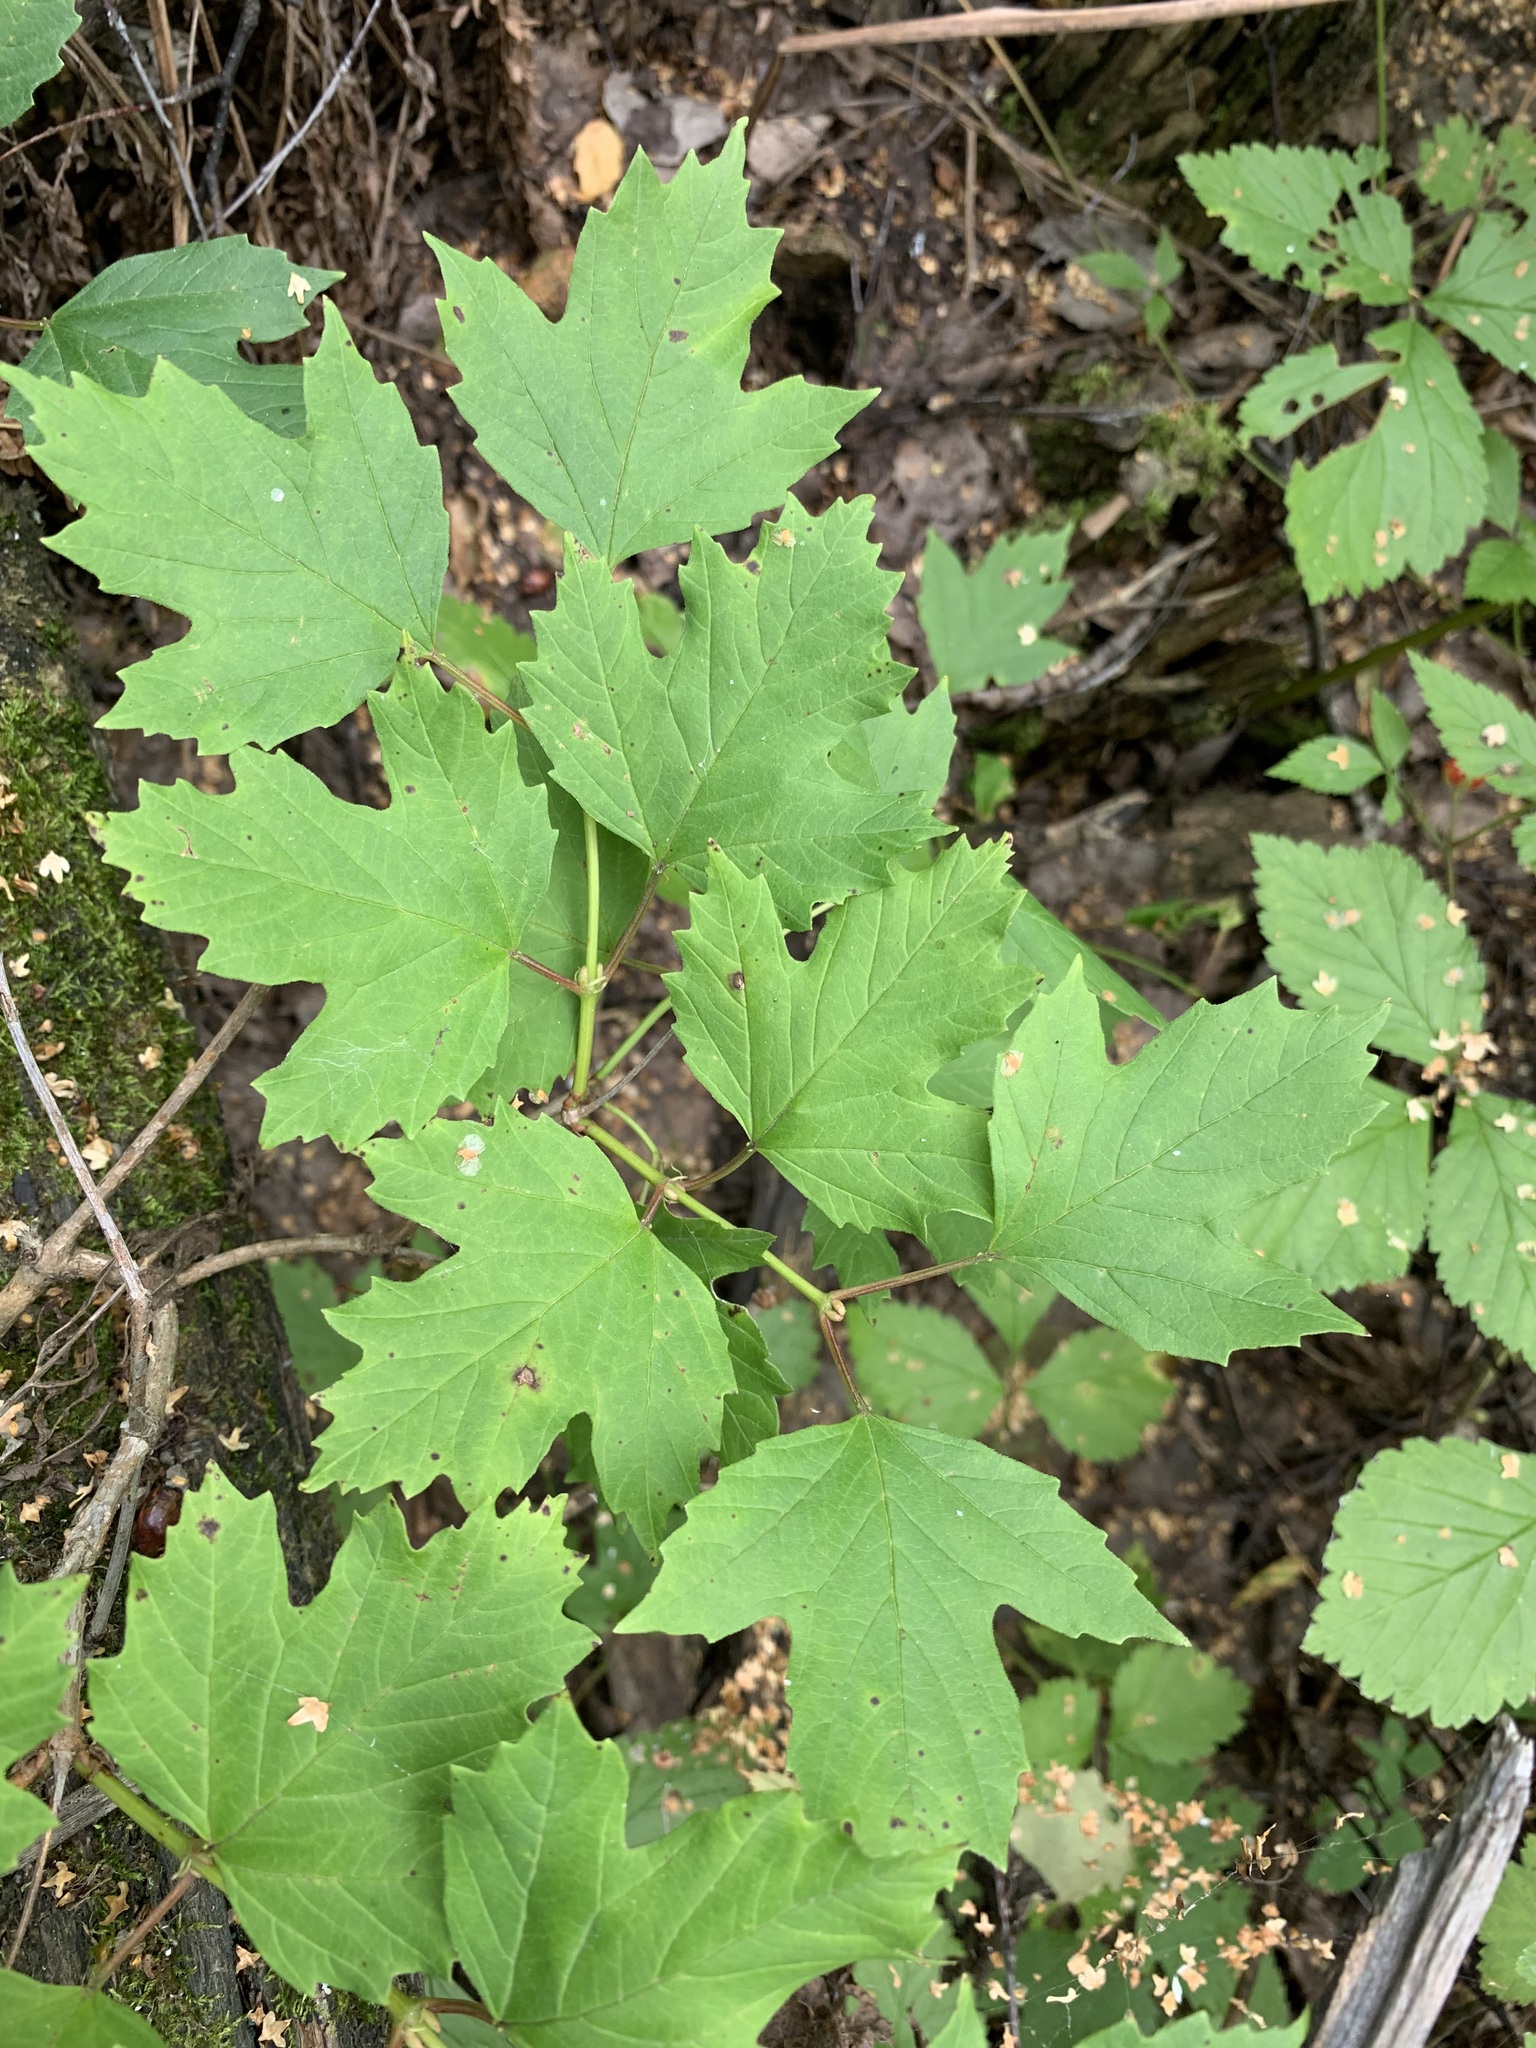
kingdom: Plantae
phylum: Tracheophyta
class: Magnoliopsida
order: Dipsacales
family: Viburnaceae
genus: Viburnum
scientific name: Viburnum opulus
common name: Guelder-rose
